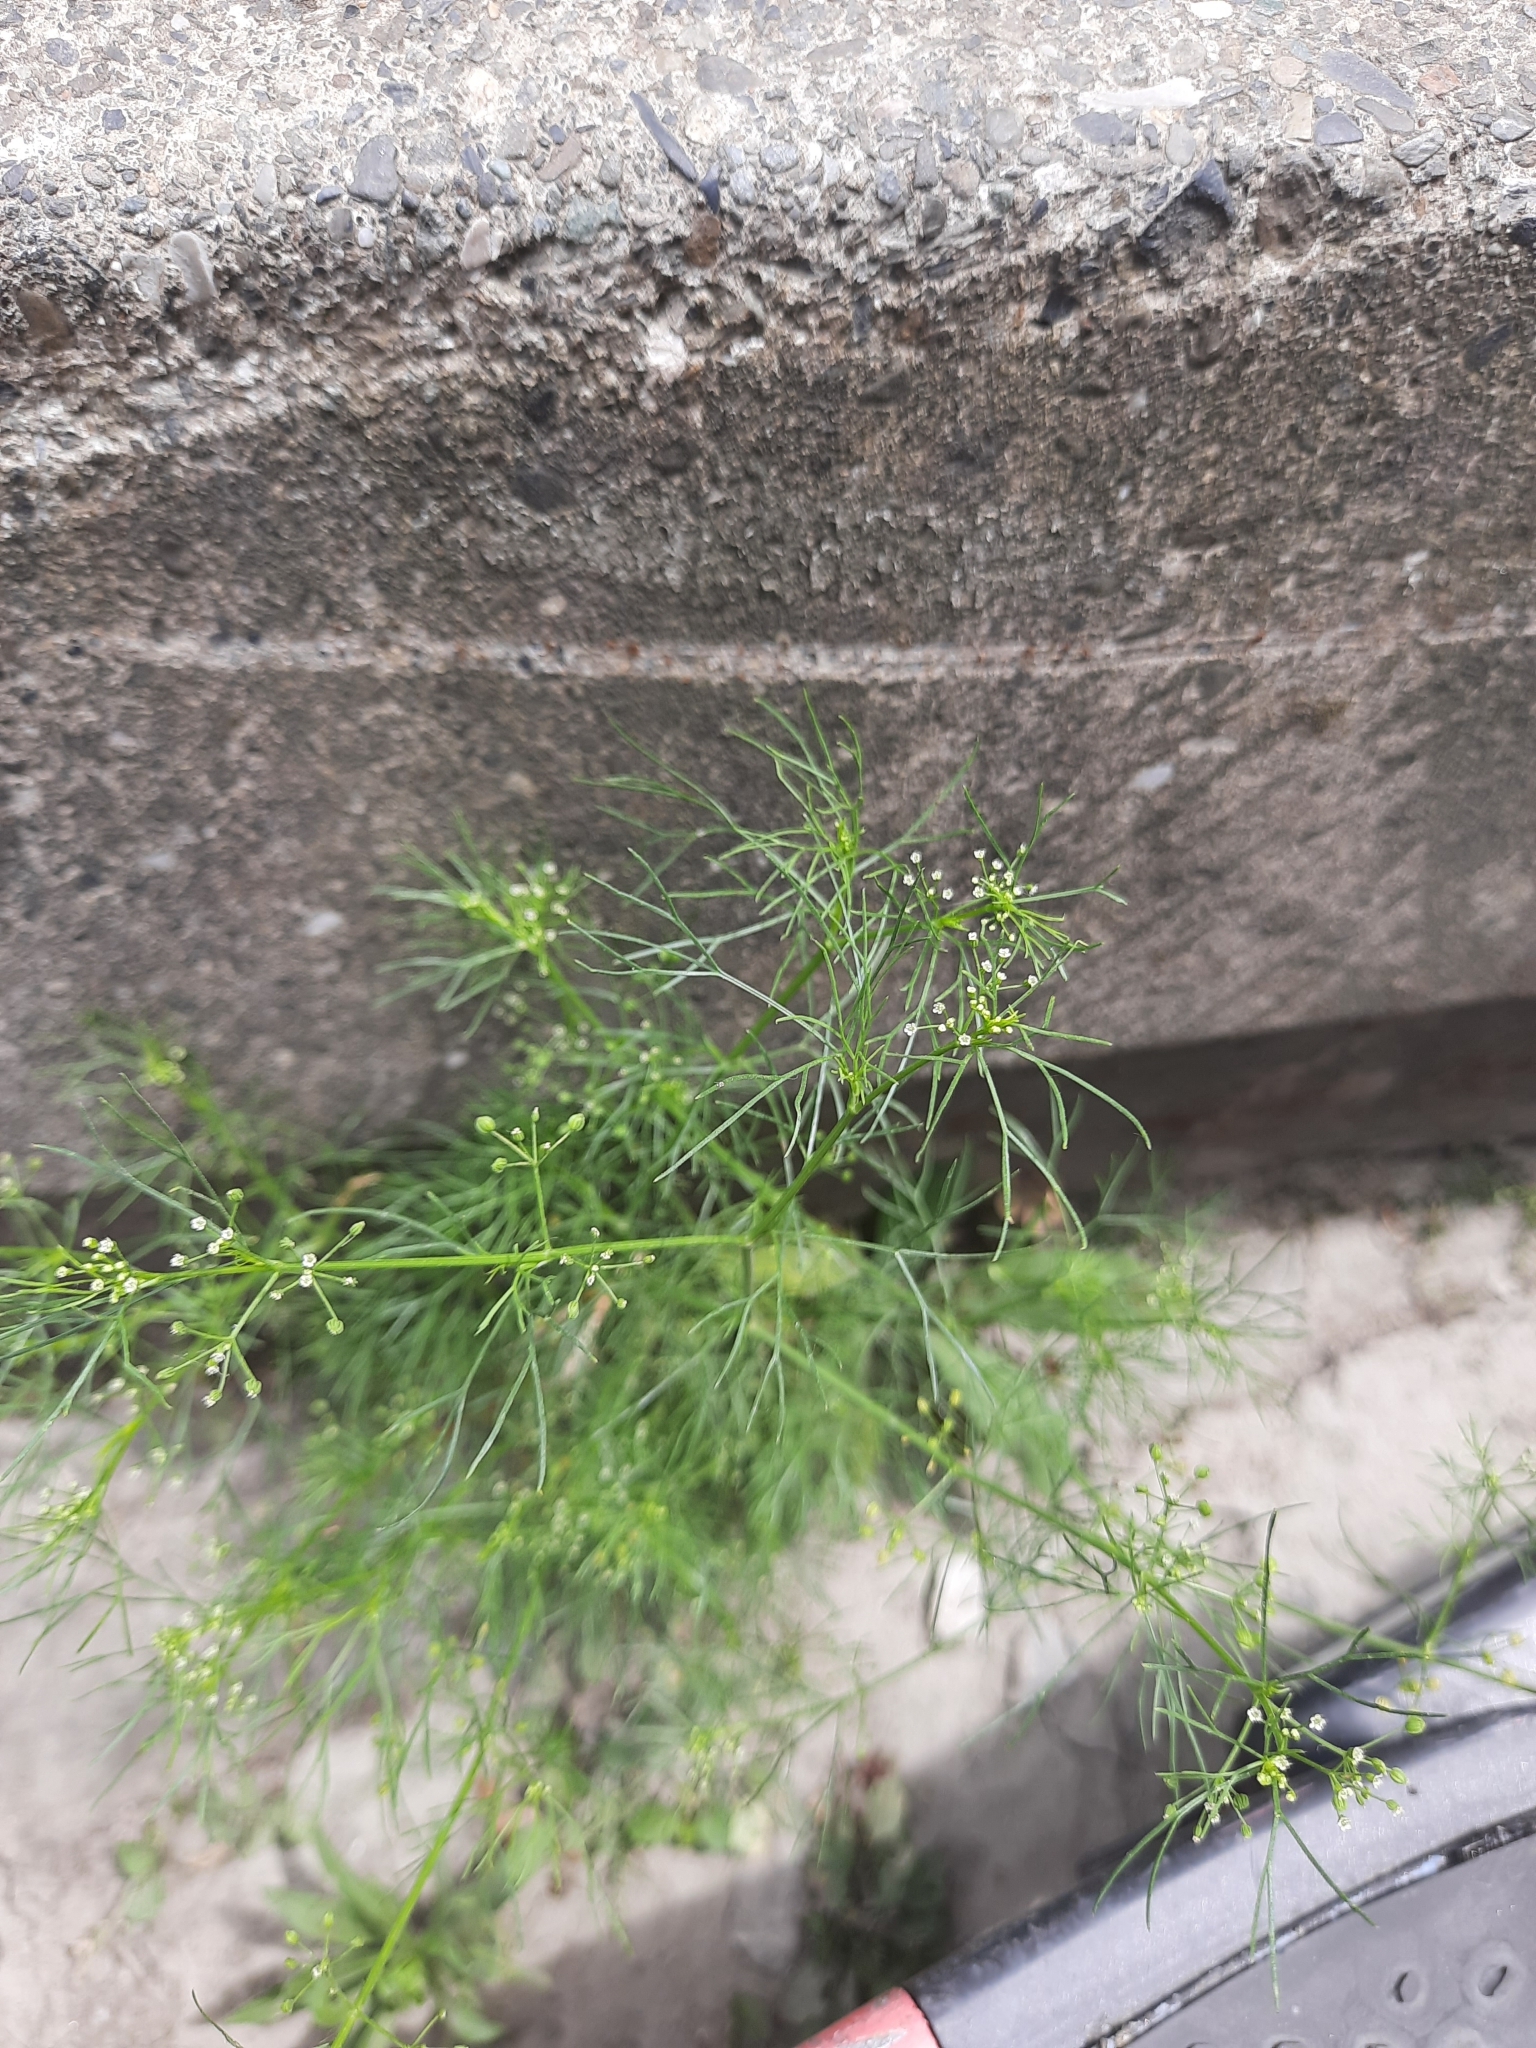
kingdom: Plantae
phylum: Tracheophyta
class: Magnoliopsida
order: Apiales
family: Apiaceae
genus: Cyclospermum
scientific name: Cyclospermum leptophyllum
